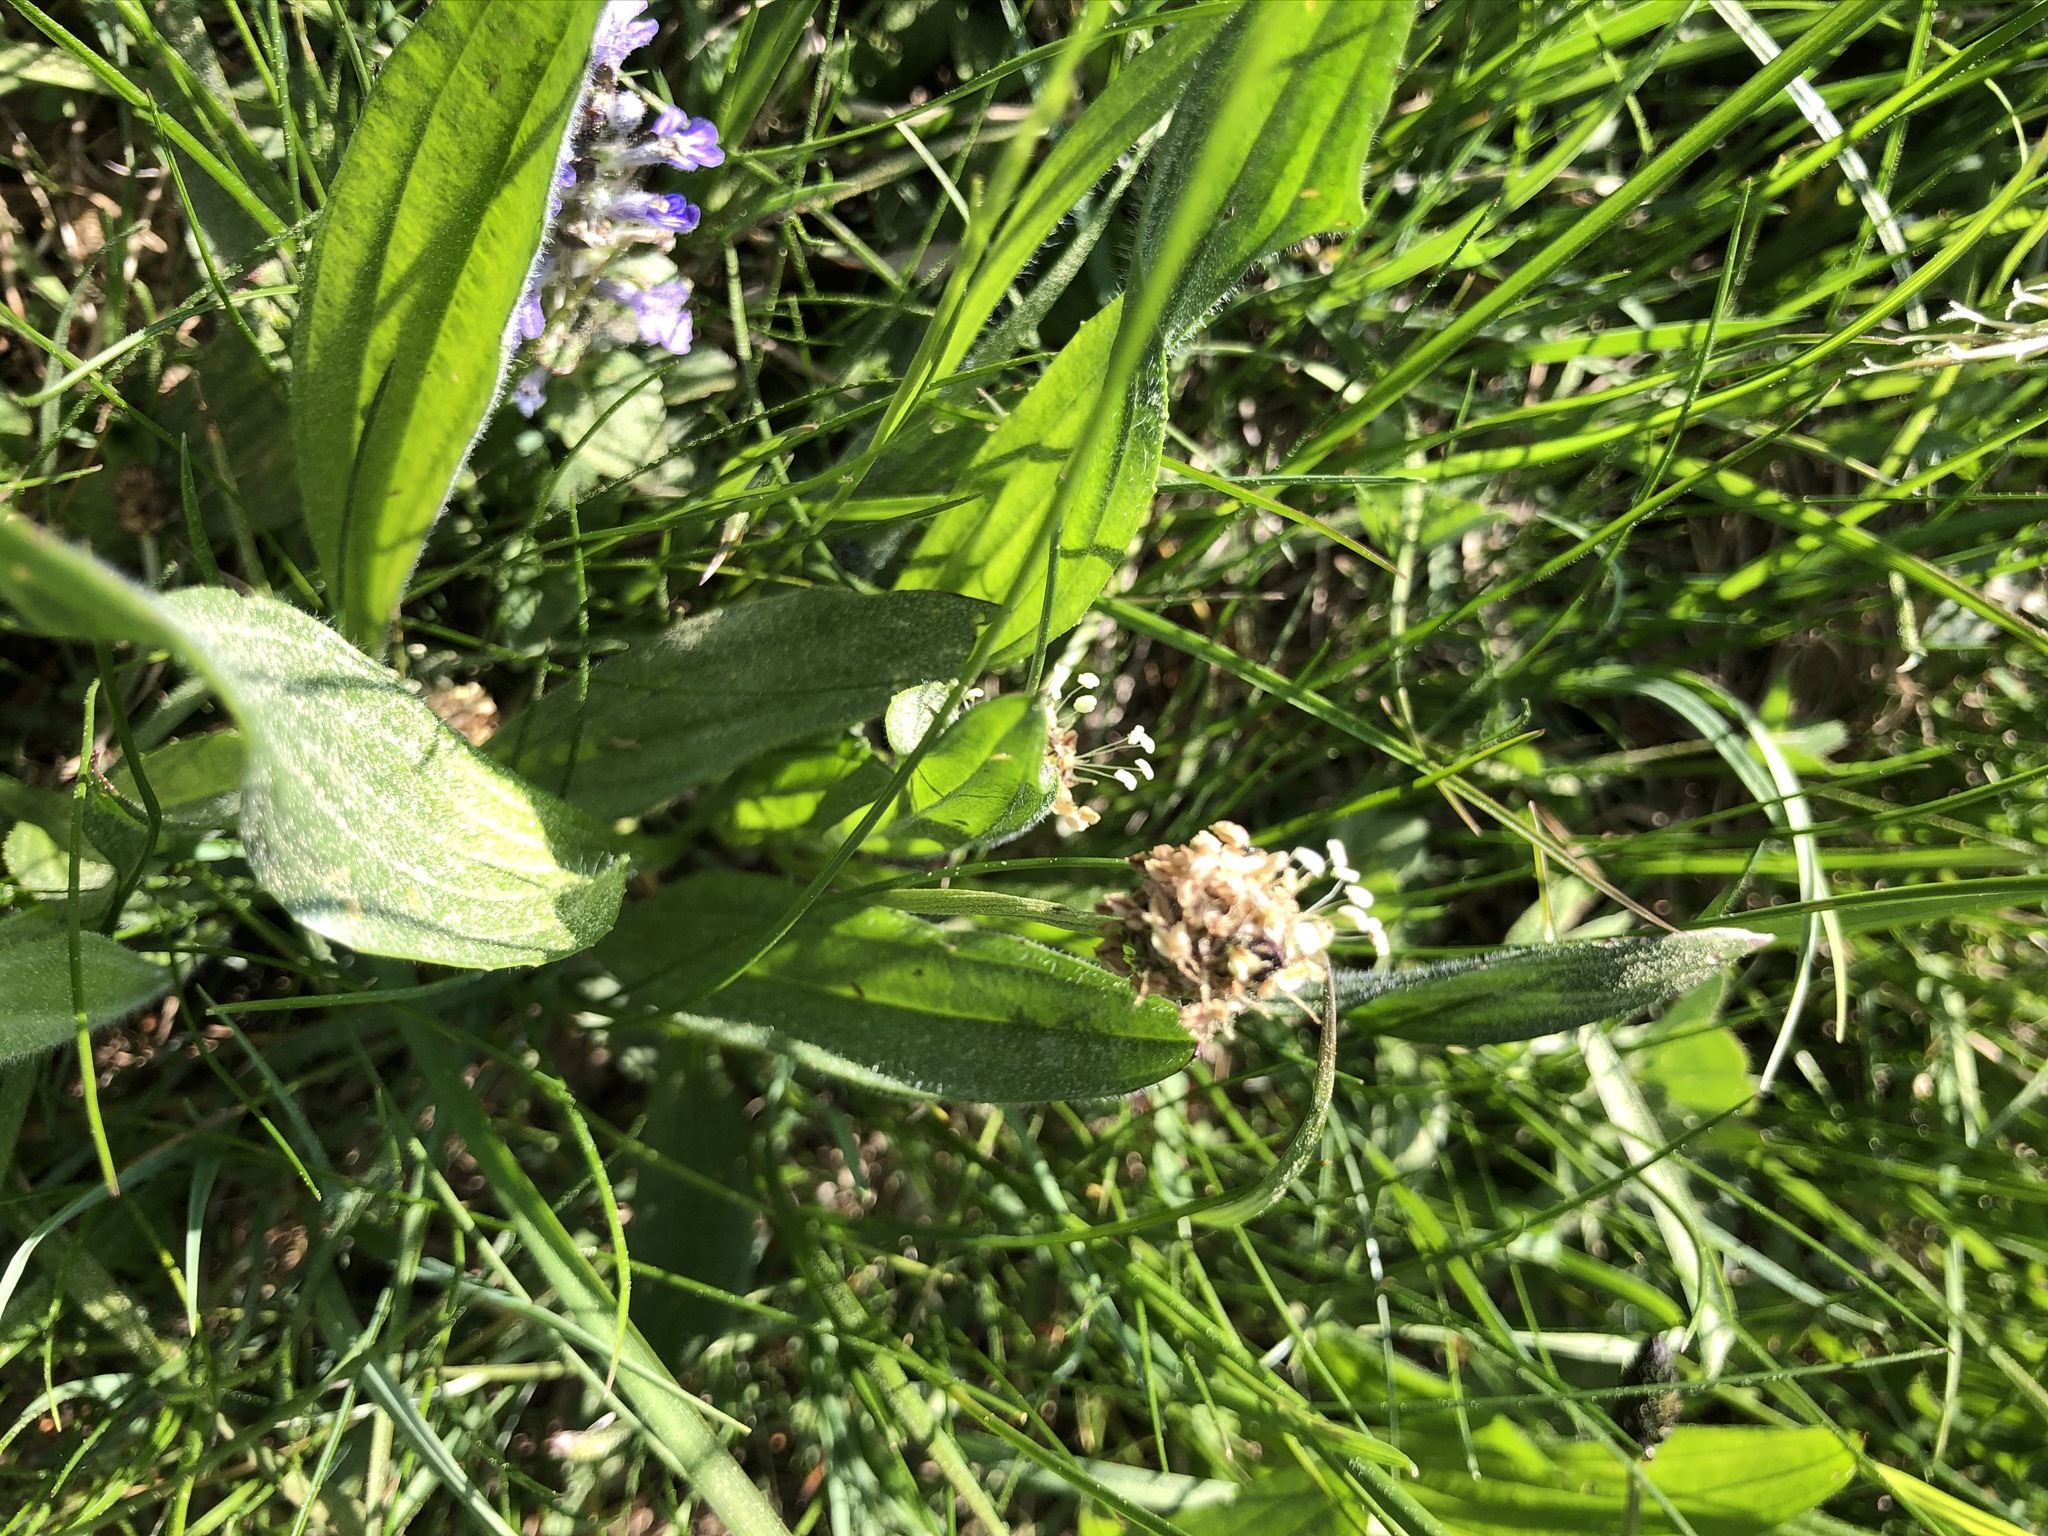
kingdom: Plantae
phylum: Tracheophyta
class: Magnoliopsida
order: Lamiales
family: Plantaginaceae
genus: Plantago
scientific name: Plantago lanceolata
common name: Ribwort plantain
